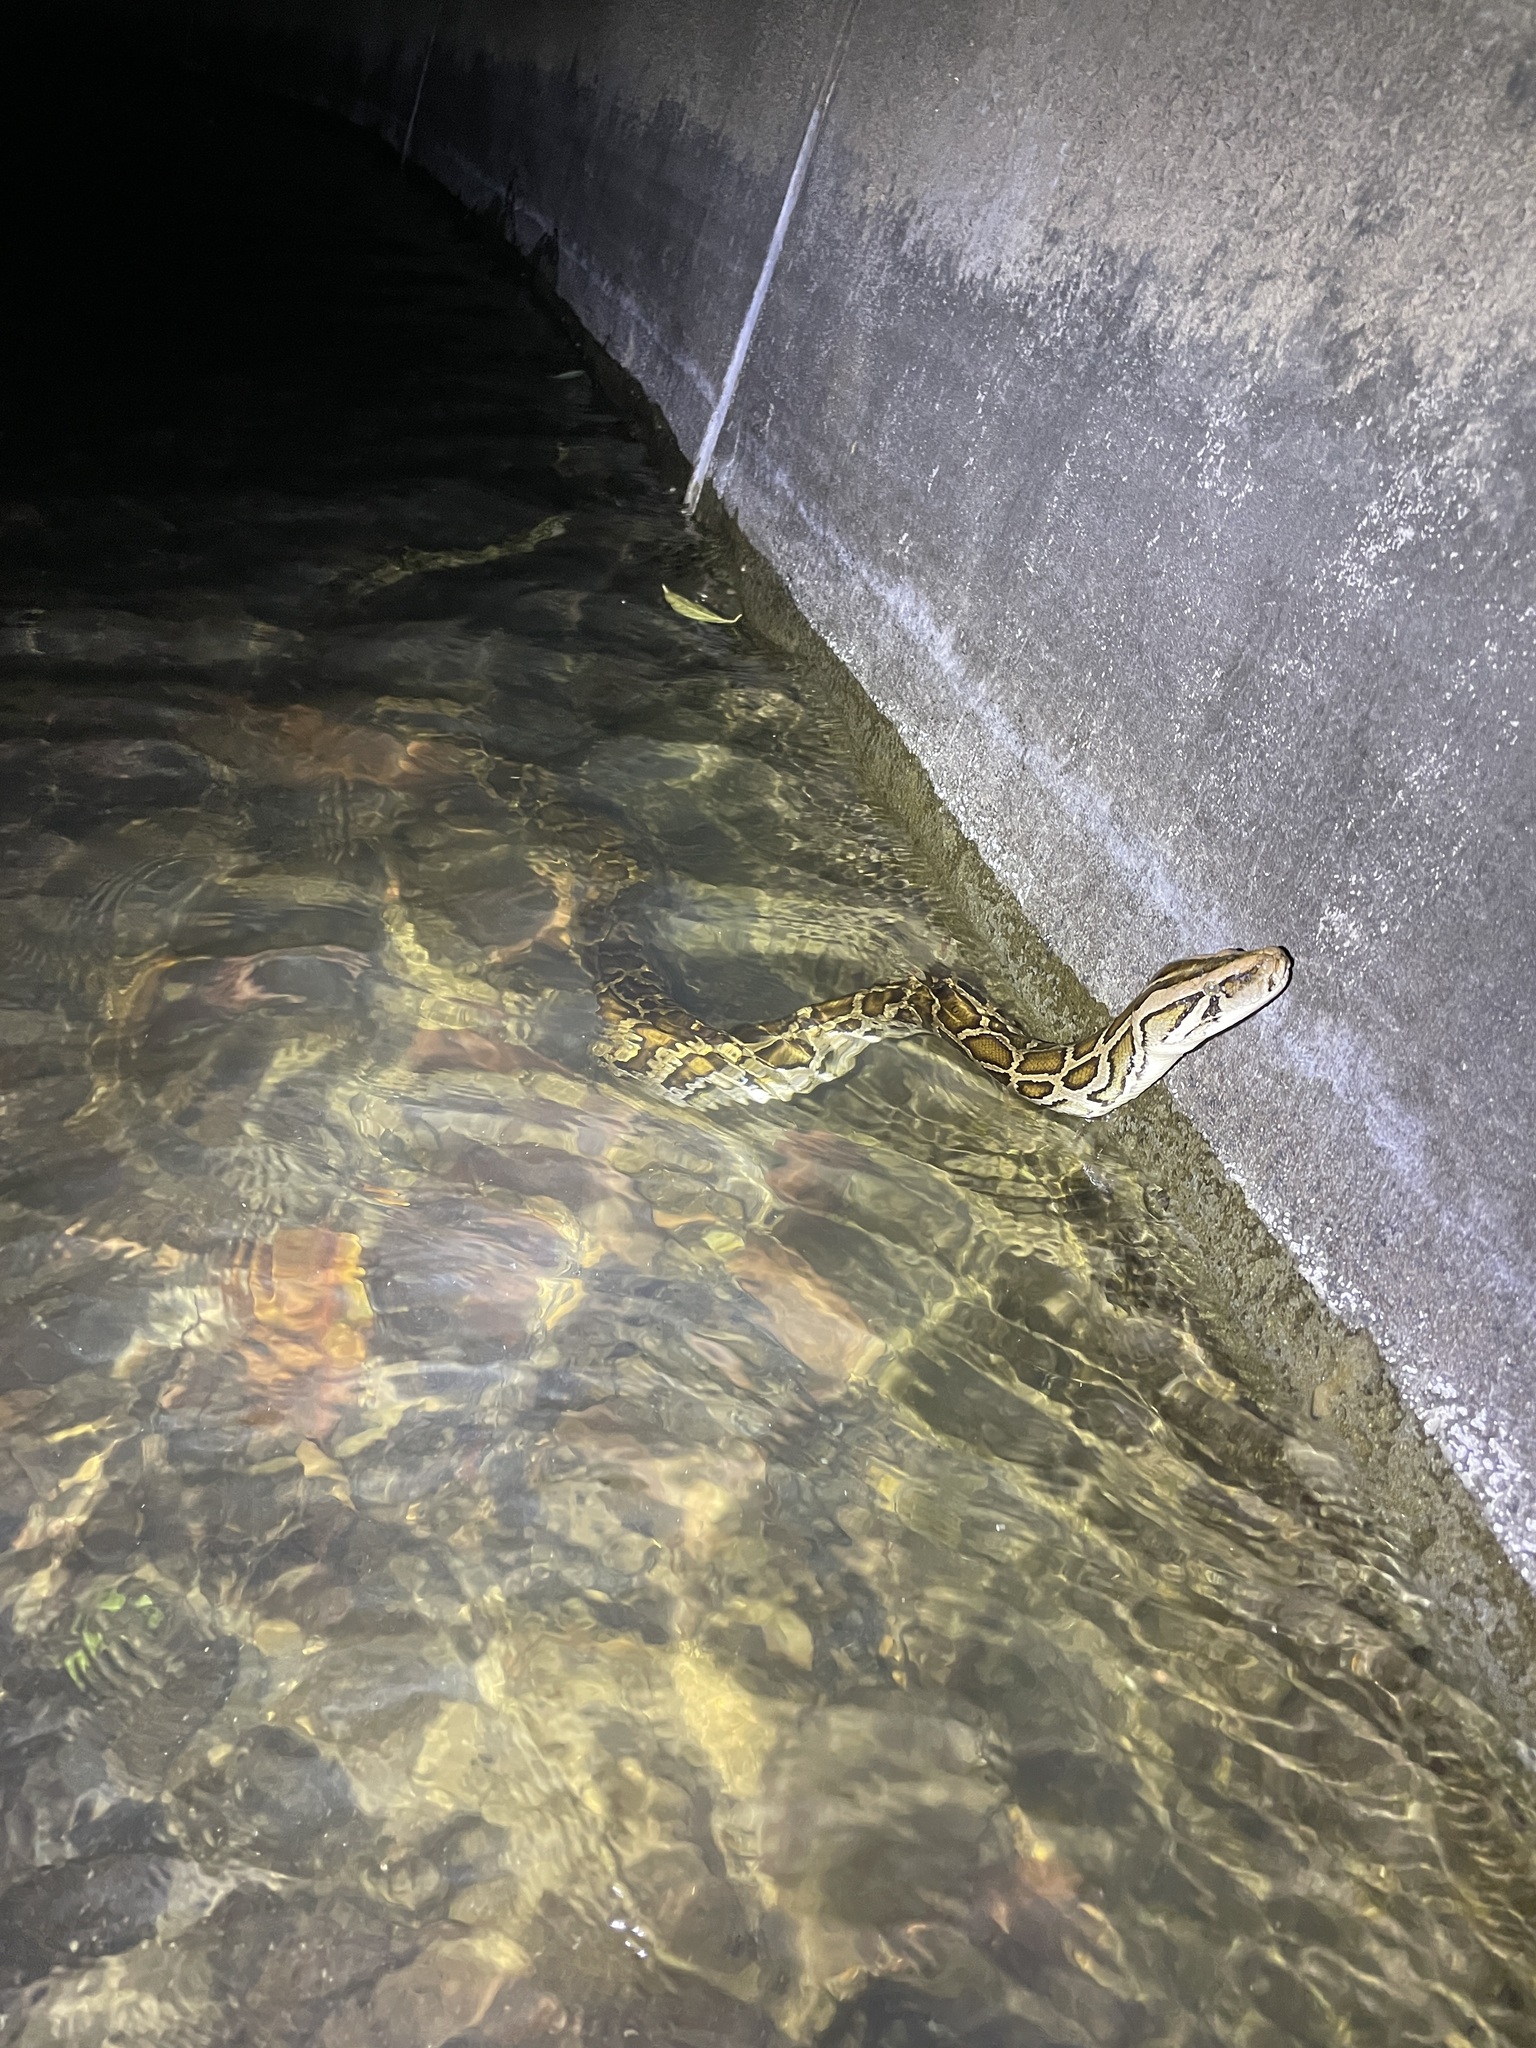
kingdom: Animalia
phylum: Chordata
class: Squamata
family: Pythonidae
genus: Python
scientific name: Python bivittatus
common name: Burmese python
